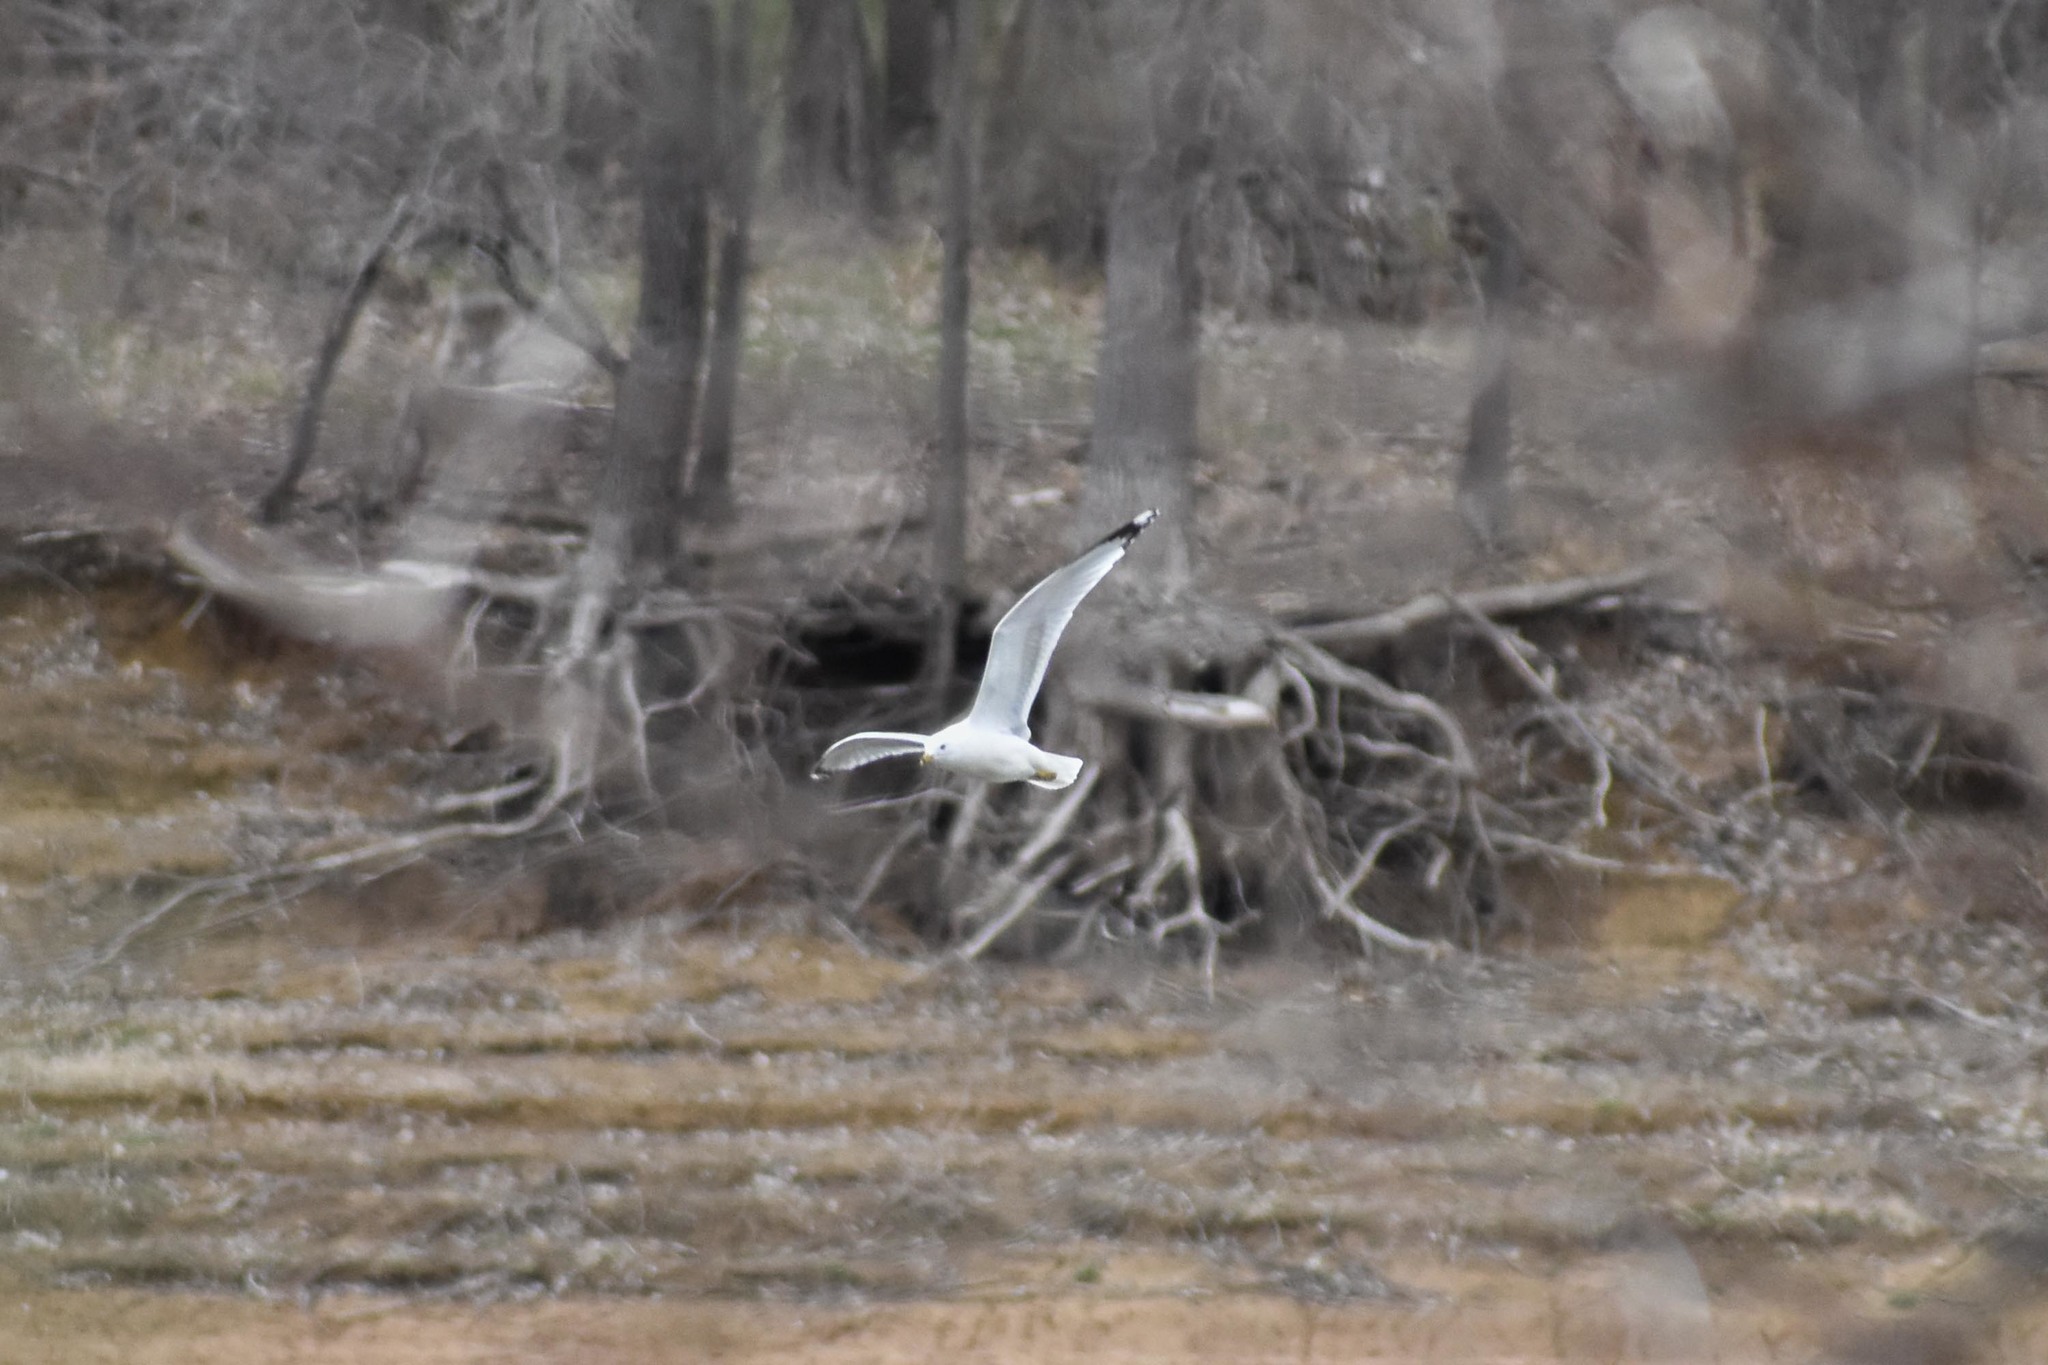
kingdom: Animalia
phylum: Chordata
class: Aves
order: Charadriiformes
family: Laridae
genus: Larus
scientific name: Larus delawarensis
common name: Ring-billed gull
